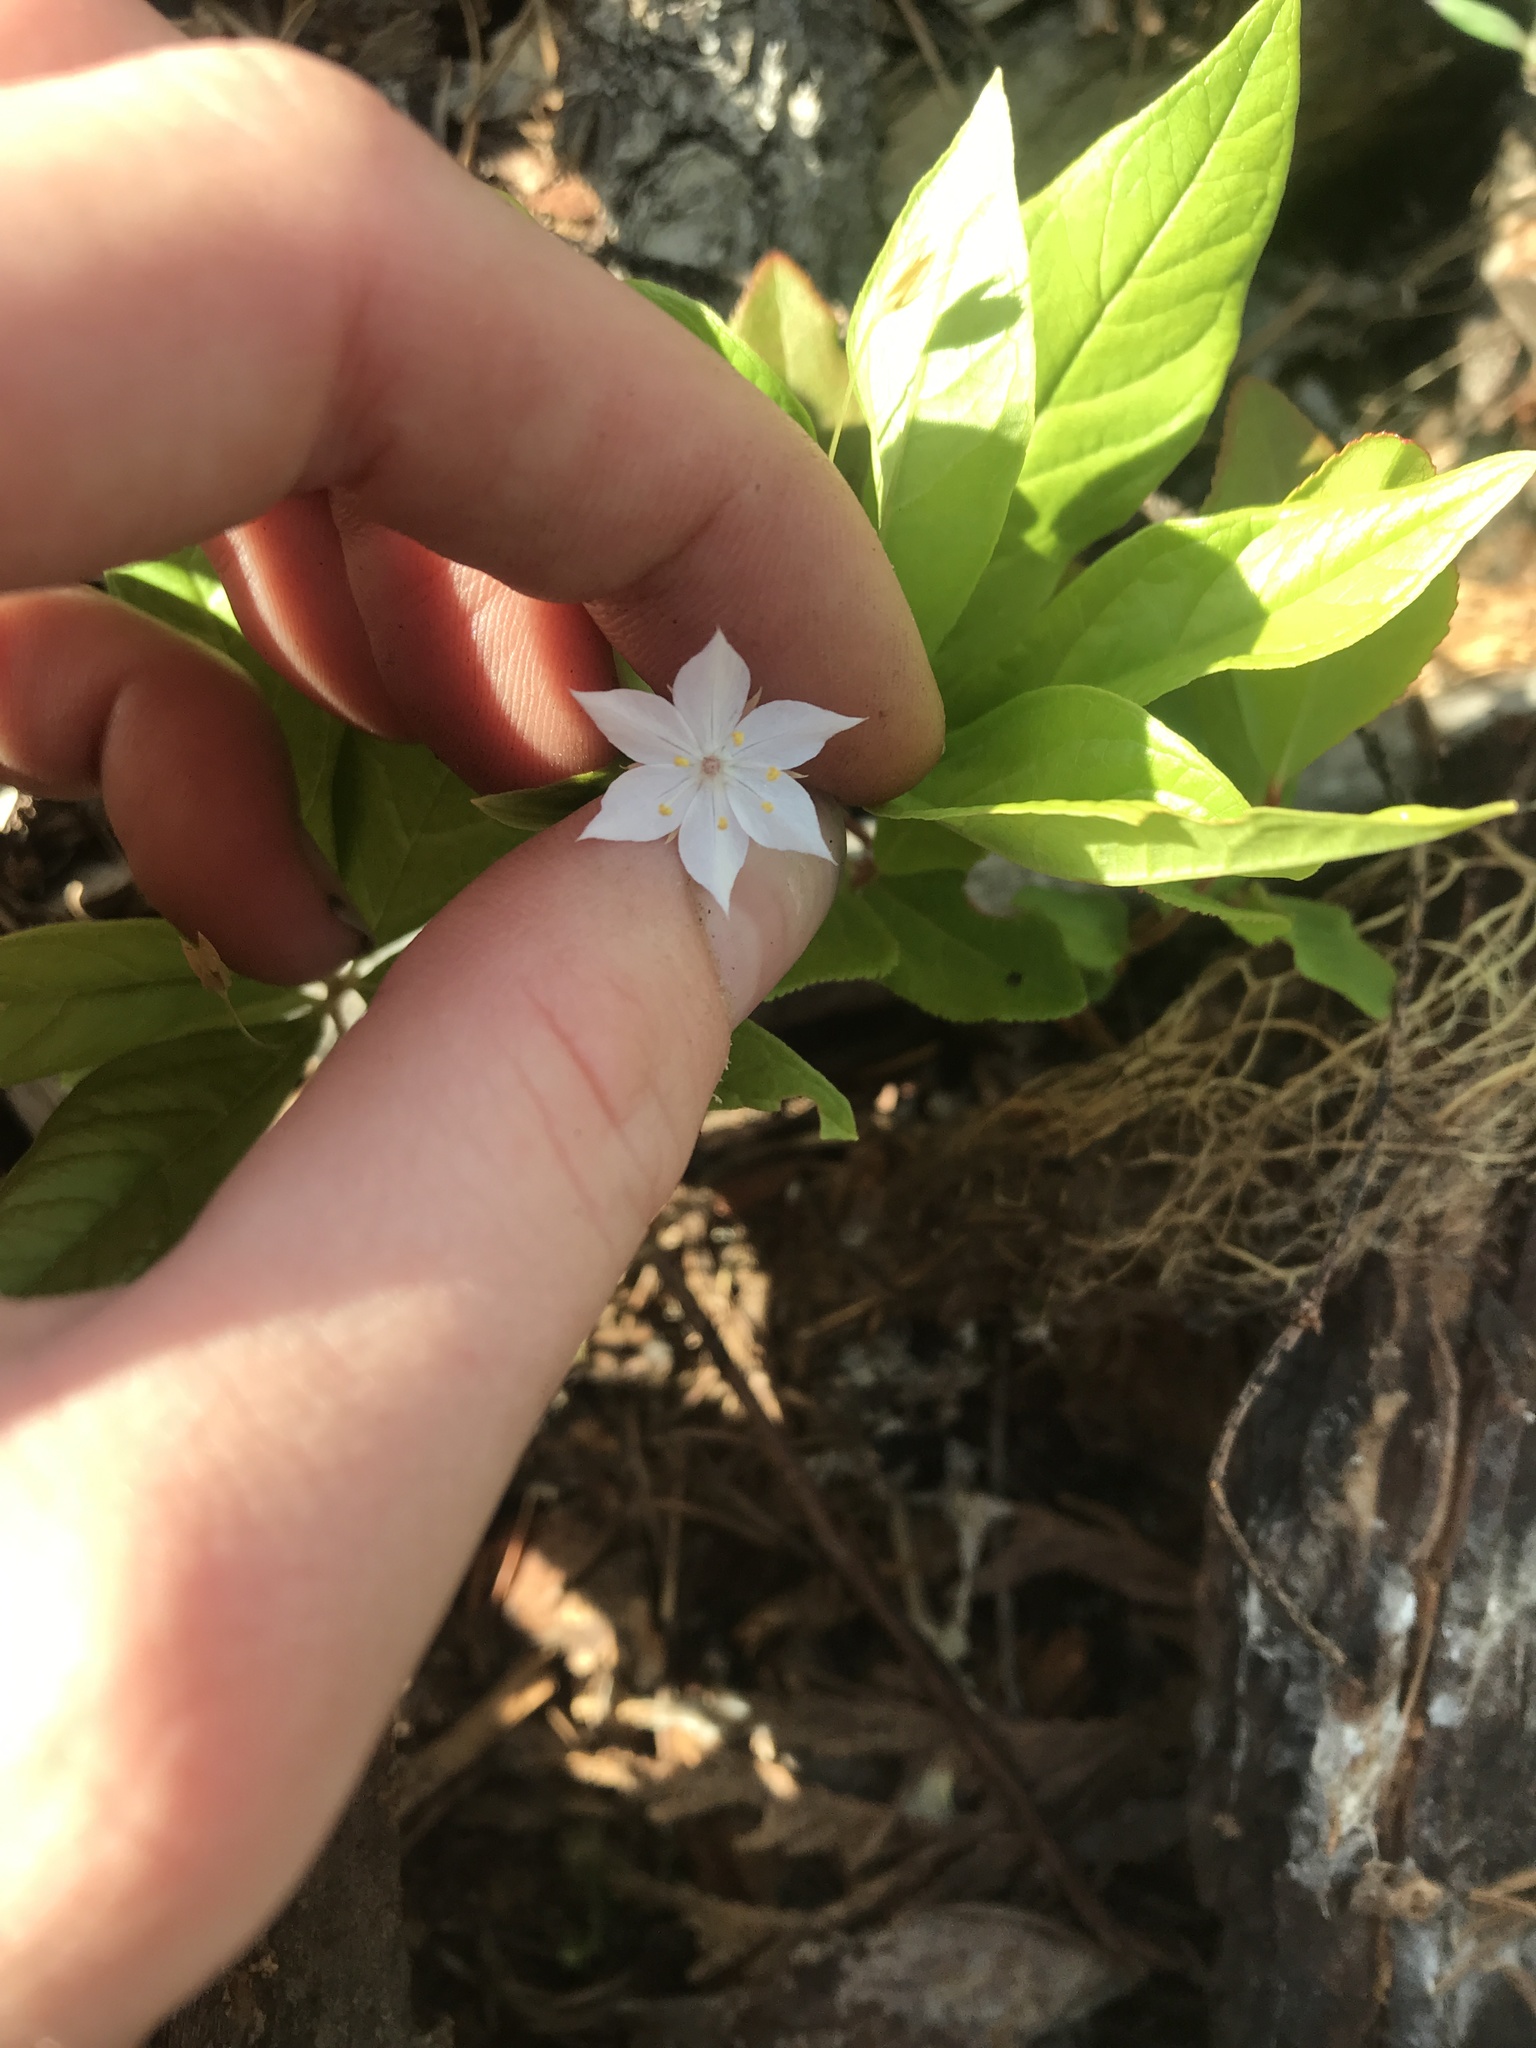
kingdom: Plantae
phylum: Tracheophyta
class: Magnoliopsida
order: Ericales
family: Primulaceae
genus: Lysimachia
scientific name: Lysimachia latifolia
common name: Pacific starflower
